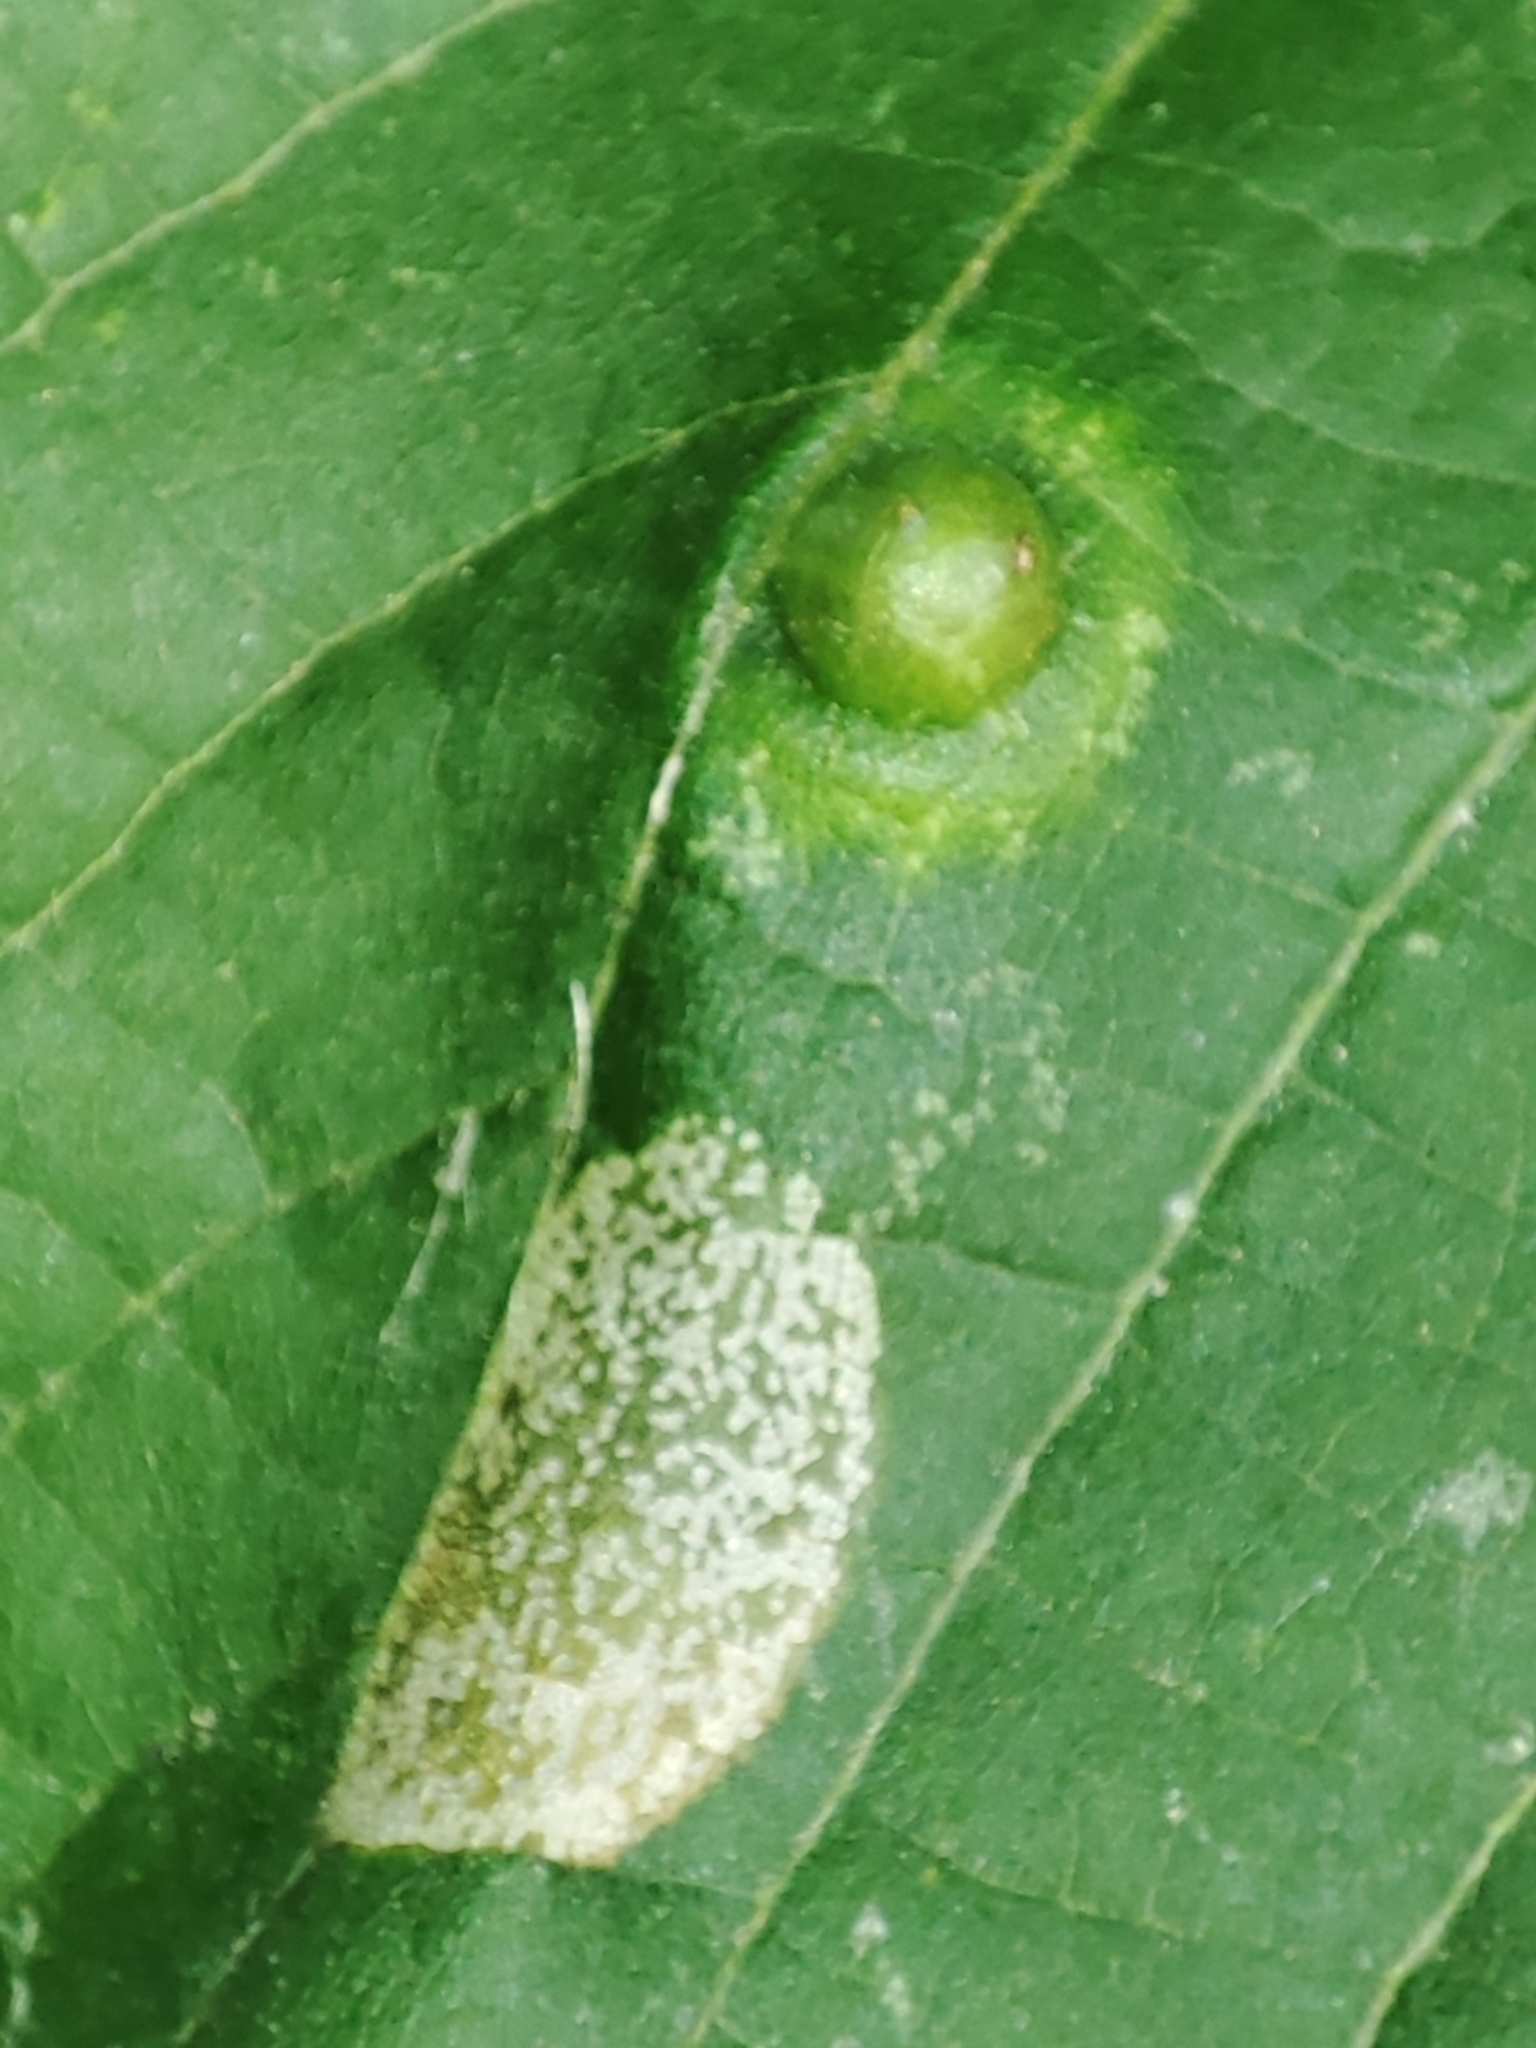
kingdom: Animalia
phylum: Arthropoda
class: Insecta
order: Diptera
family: Cecidomyiidae
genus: Didymomyia
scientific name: Didymomyia tiliacea
